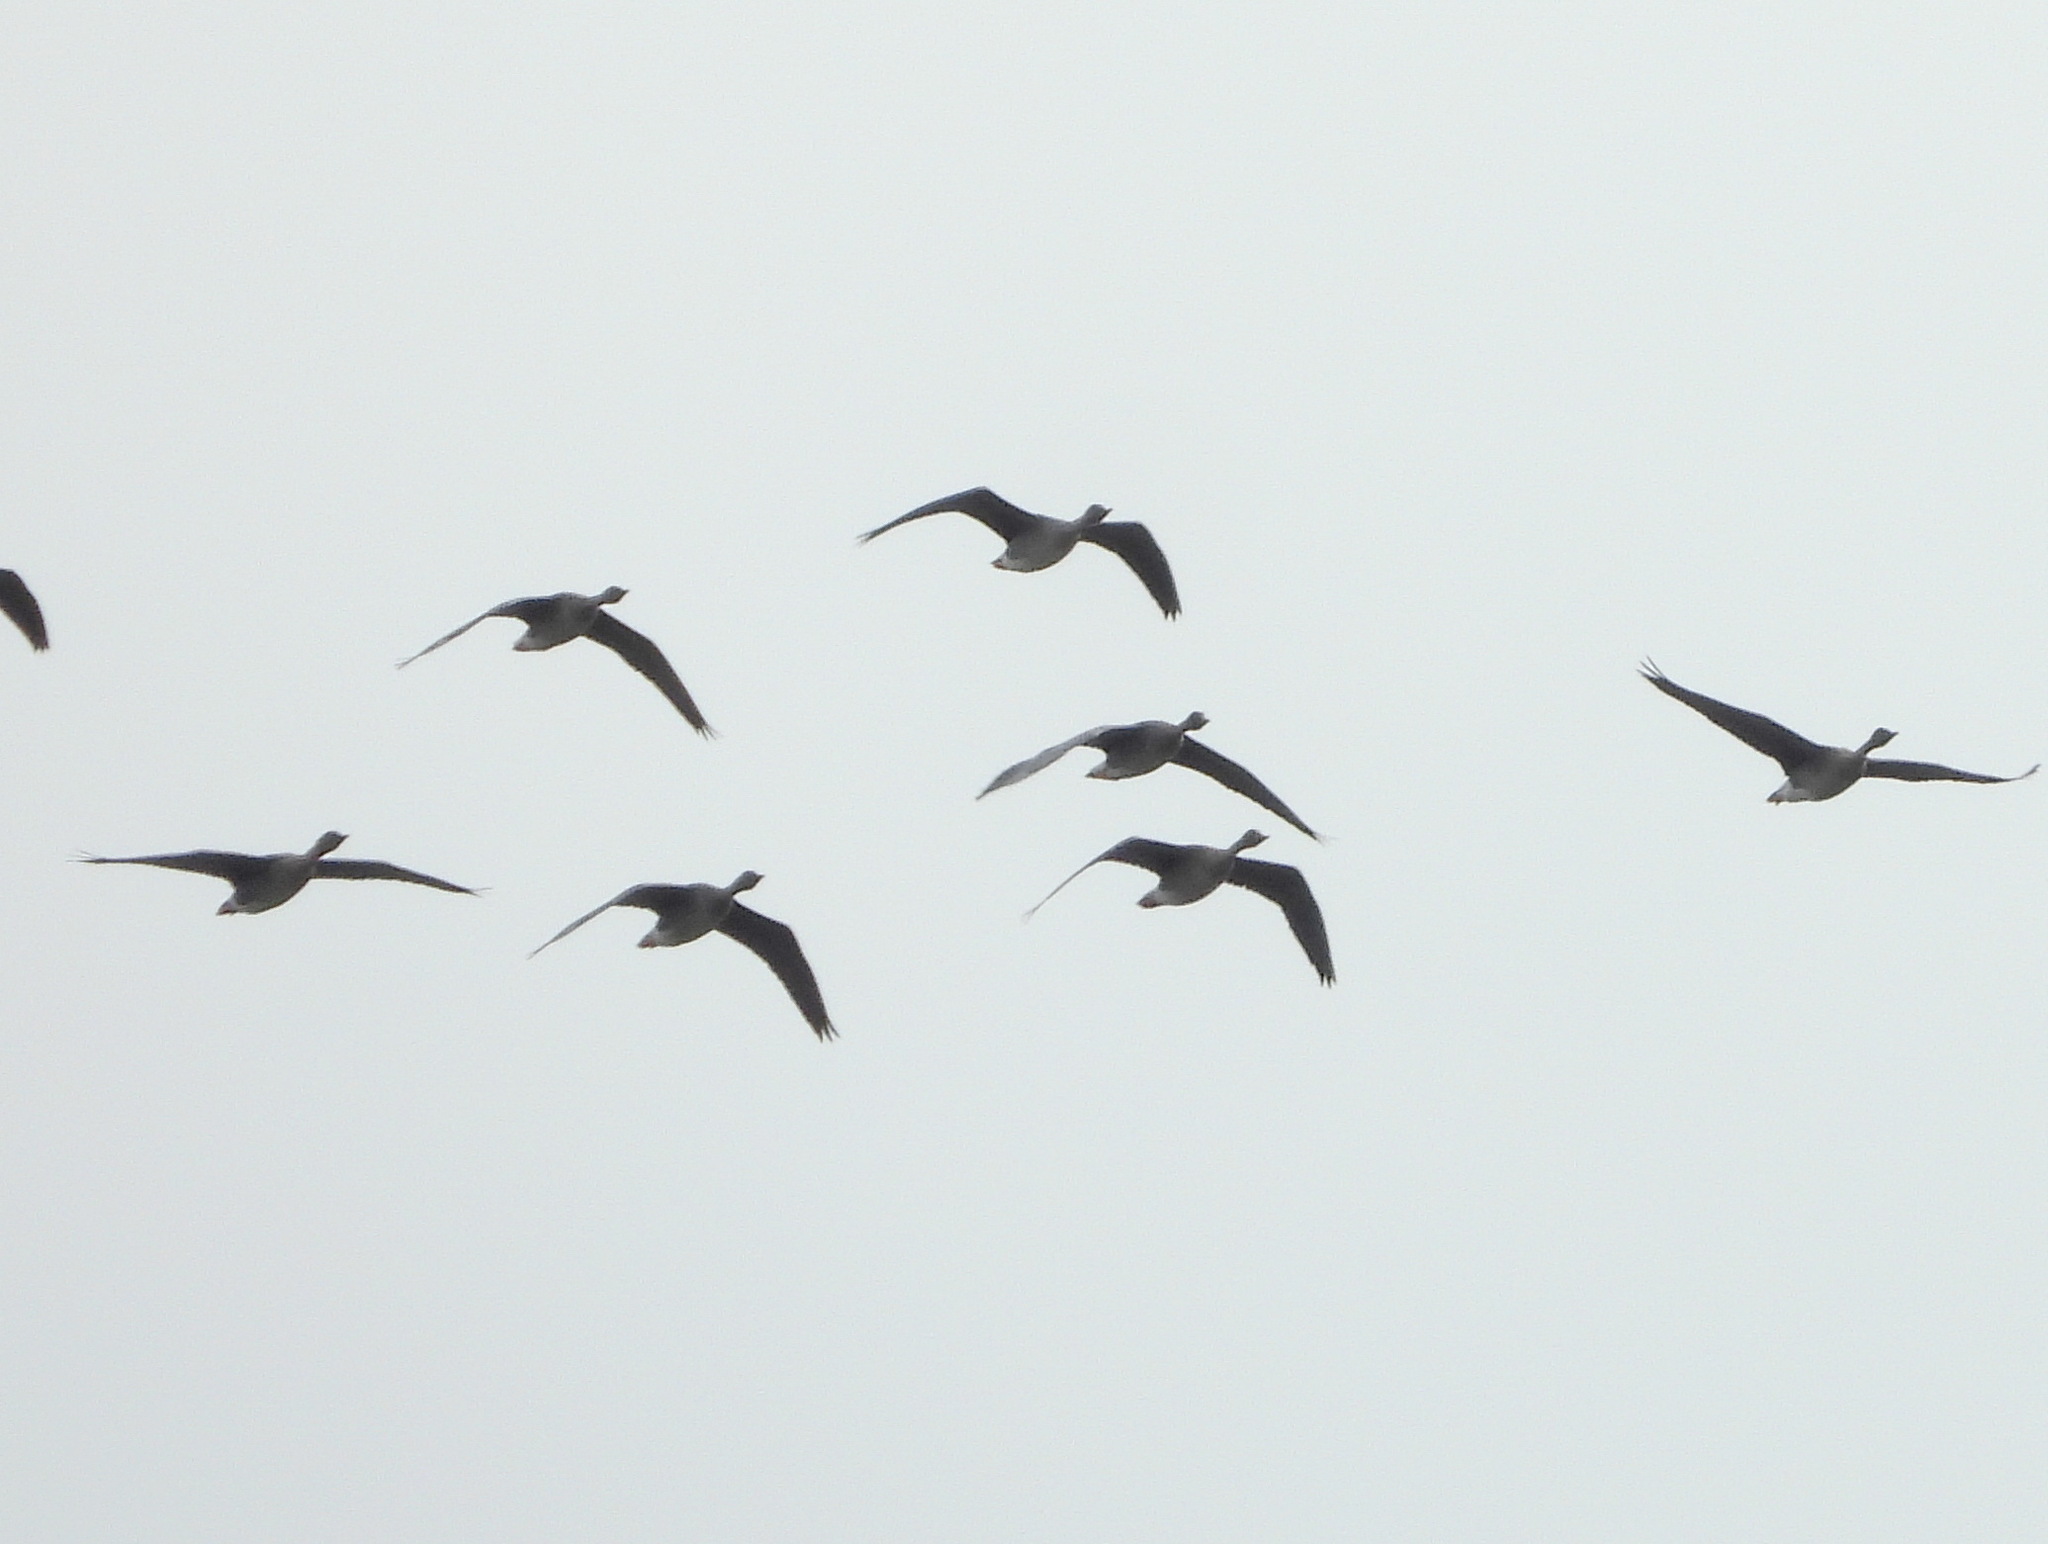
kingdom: Animalia
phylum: Chordata
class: Aves
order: Anseriformes
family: Anatidae
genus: Anser
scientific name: Anser fabalis
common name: Bean goose
